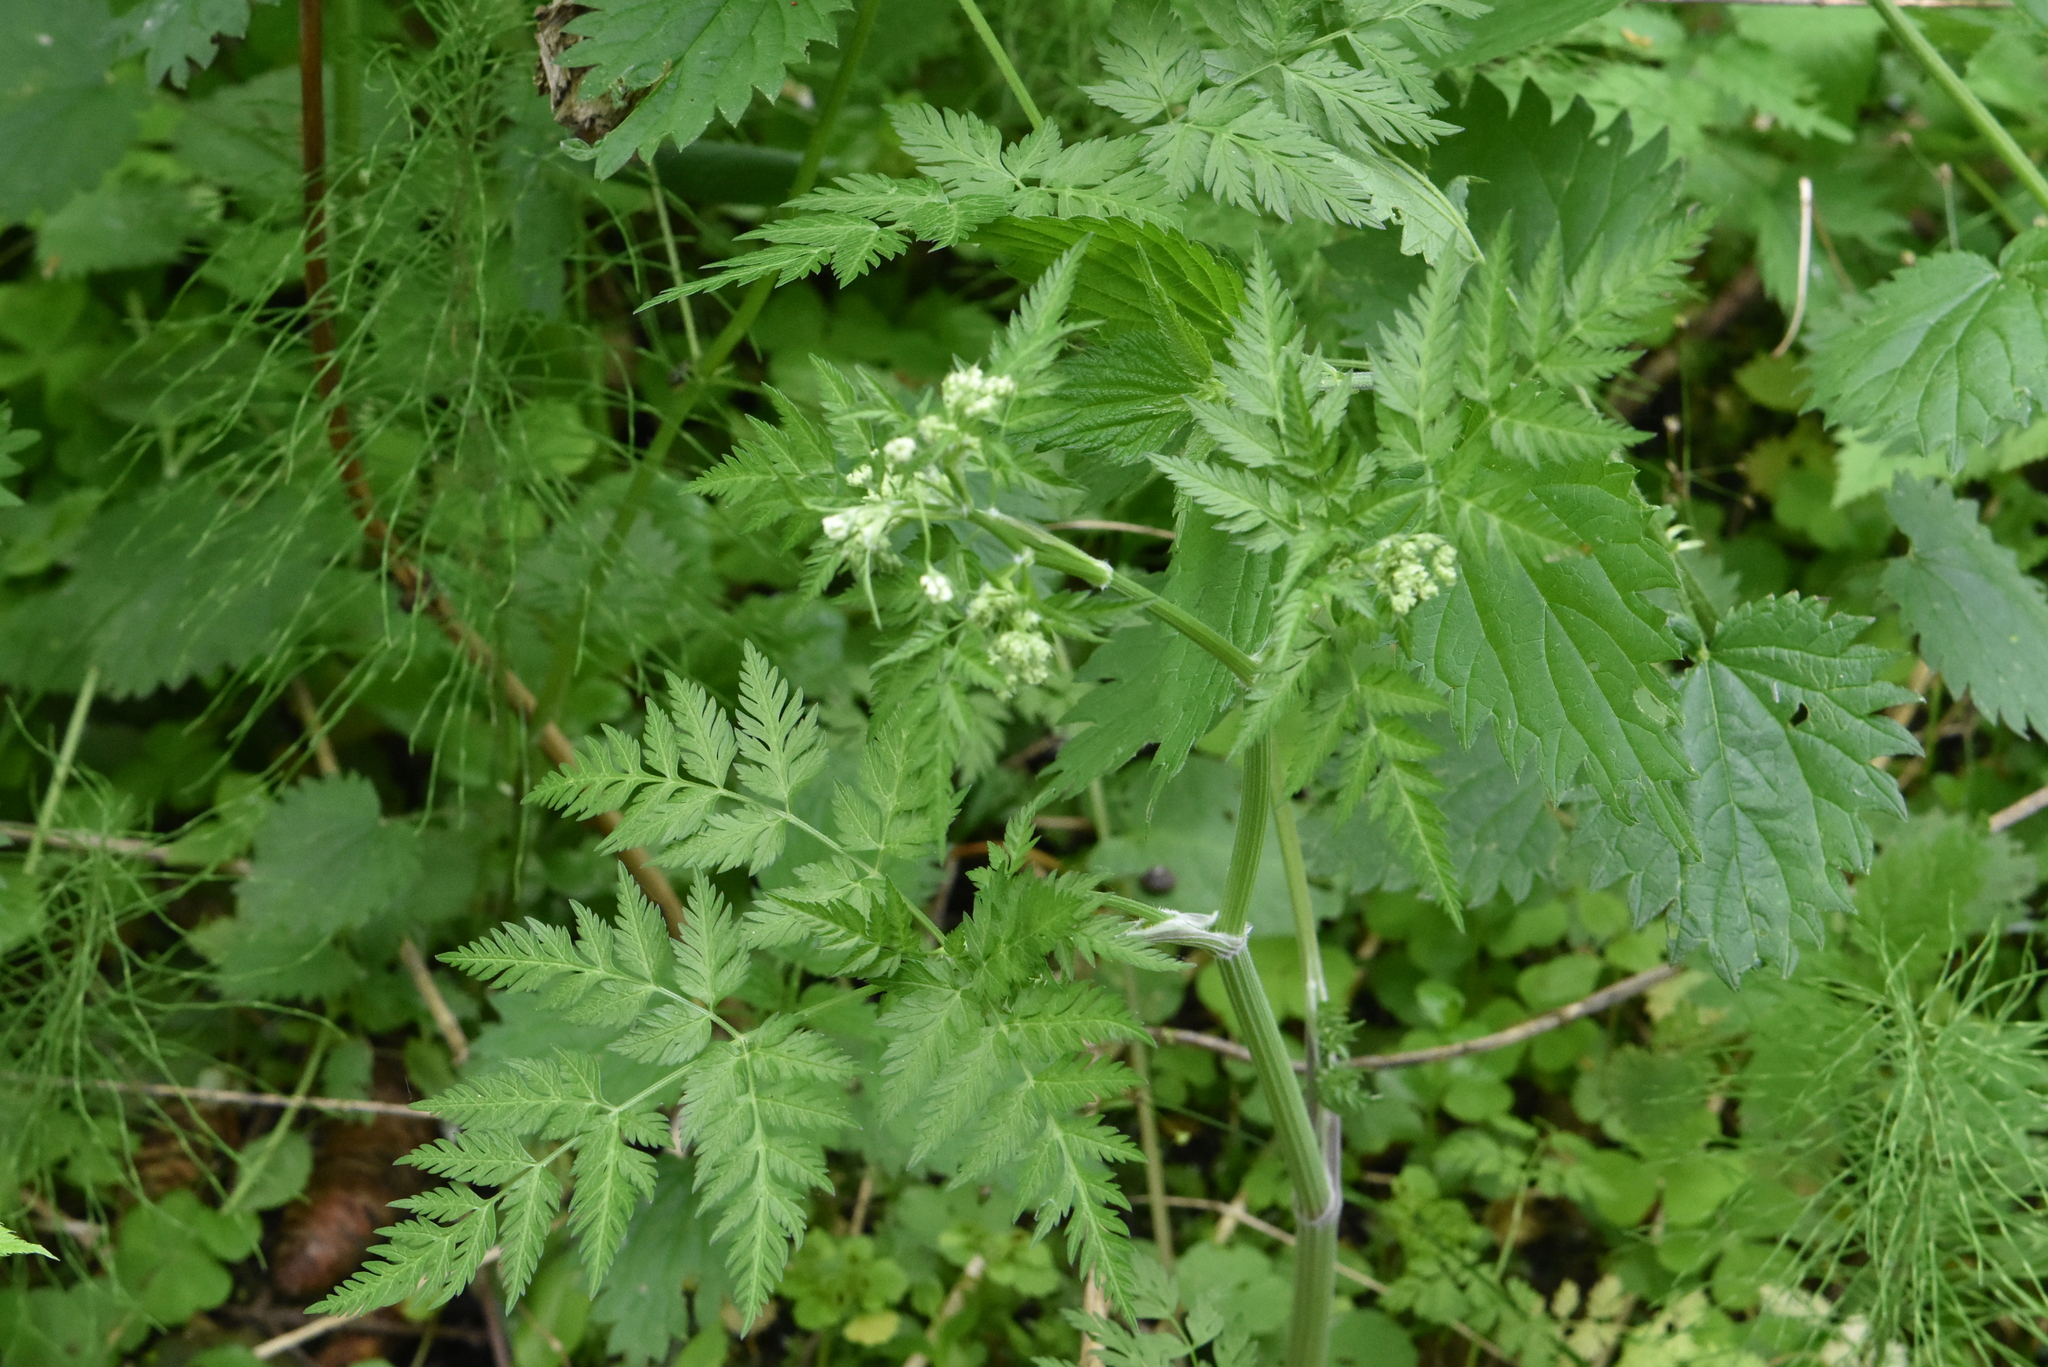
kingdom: Plantae
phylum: Tracheophyta
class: Magnoliopsida
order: Apiales
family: Apiaceae
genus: Anthriscus
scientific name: Anthriscus sylvestris
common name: Cow parsley
